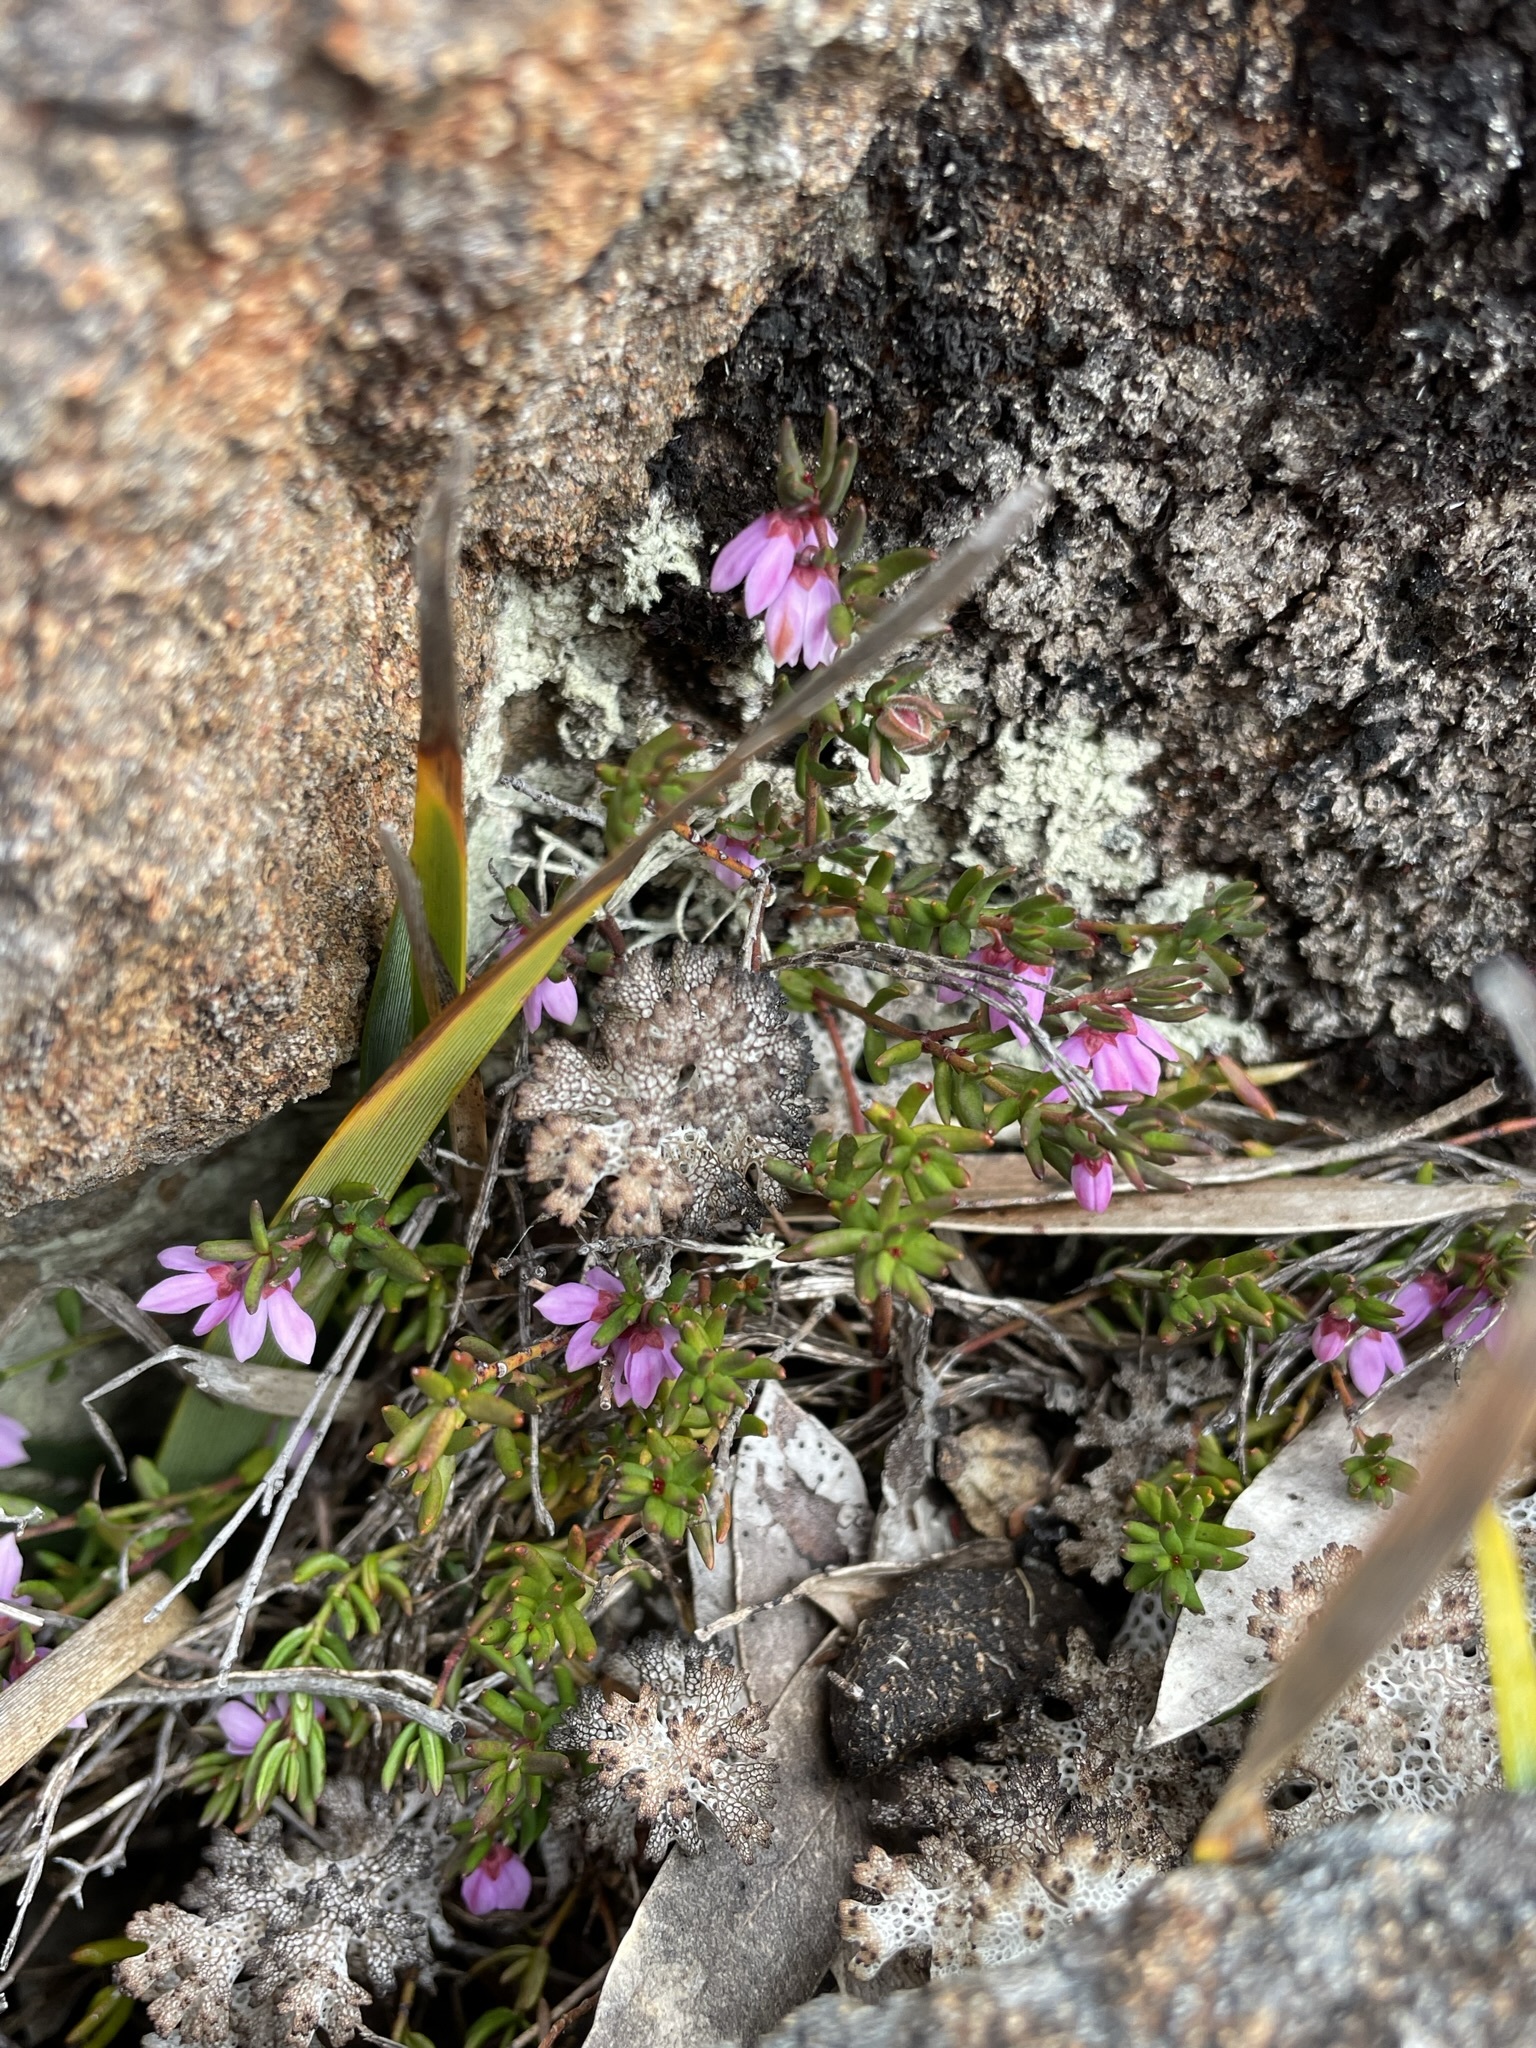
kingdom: Plantae
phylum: Tracheophyta
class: Magnoliopsida
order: Oxalidales
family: Elaeocarpaceae
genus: Tetratheca
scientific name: Tetratheca procumbens
